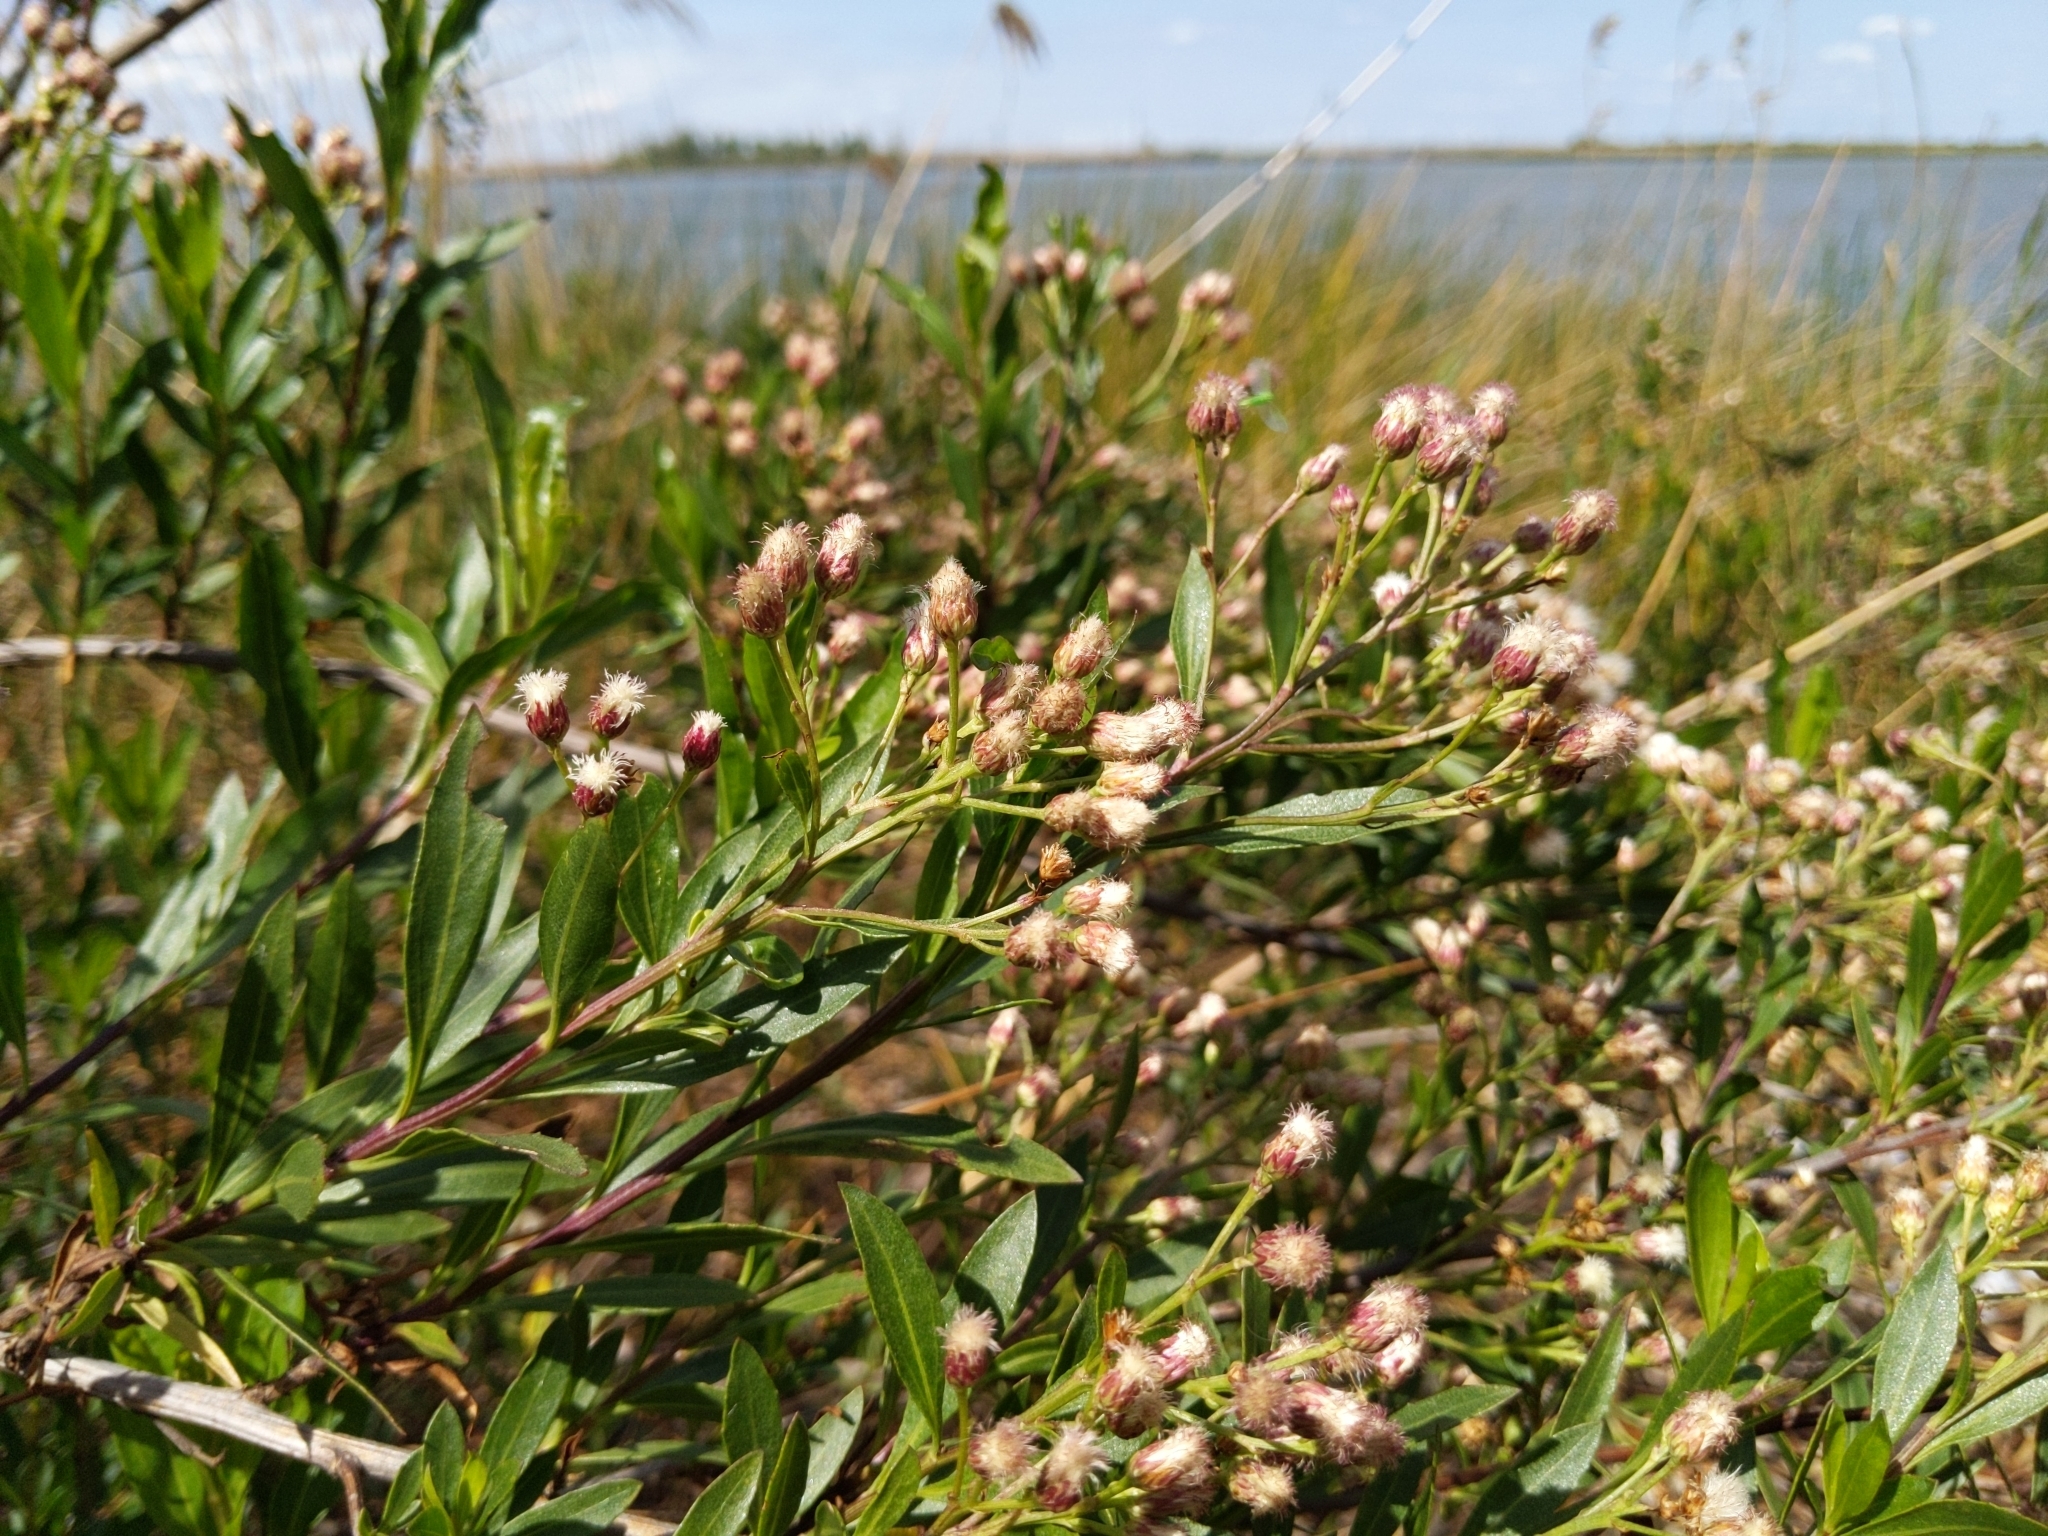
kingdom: Plantae
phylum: Tracheophyta
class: Magnoliopsida
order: Asterales
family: Asteraceae
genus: Baccharis
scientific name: Baccharis salicifolia
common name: Sticky baccharis
